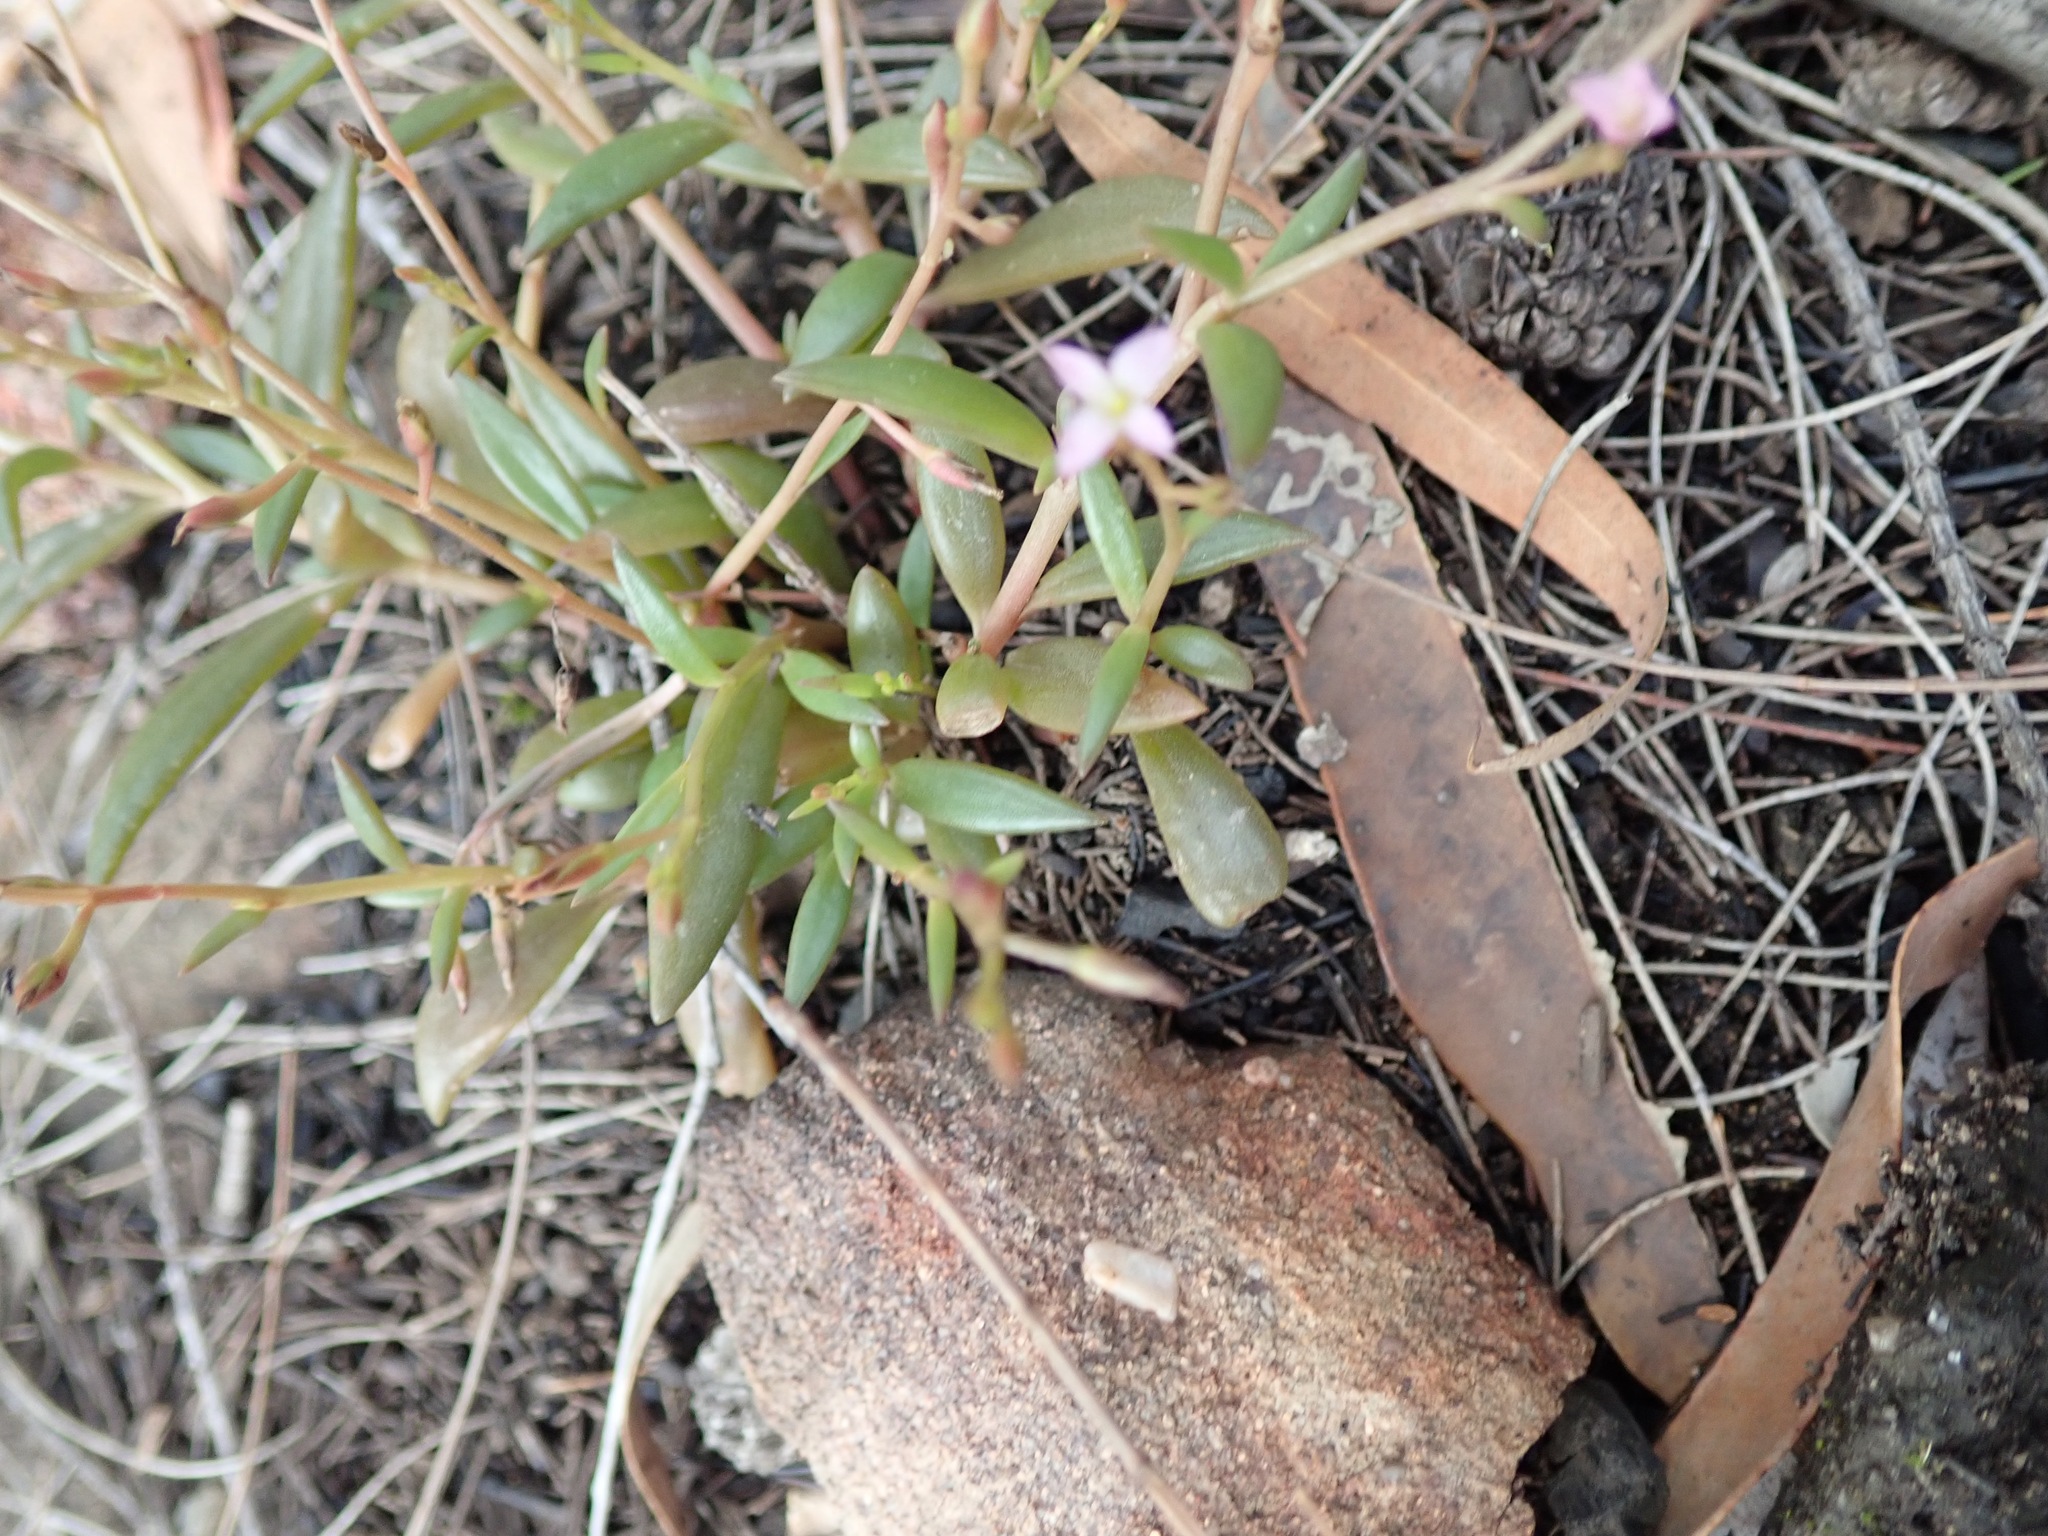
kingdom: Plantae
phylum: Tracheophyta
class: Magnoliopsida
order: Caryophyllales
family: Montiaceae
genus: Rumicastrum
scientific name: Rumicastrum eremaeum
